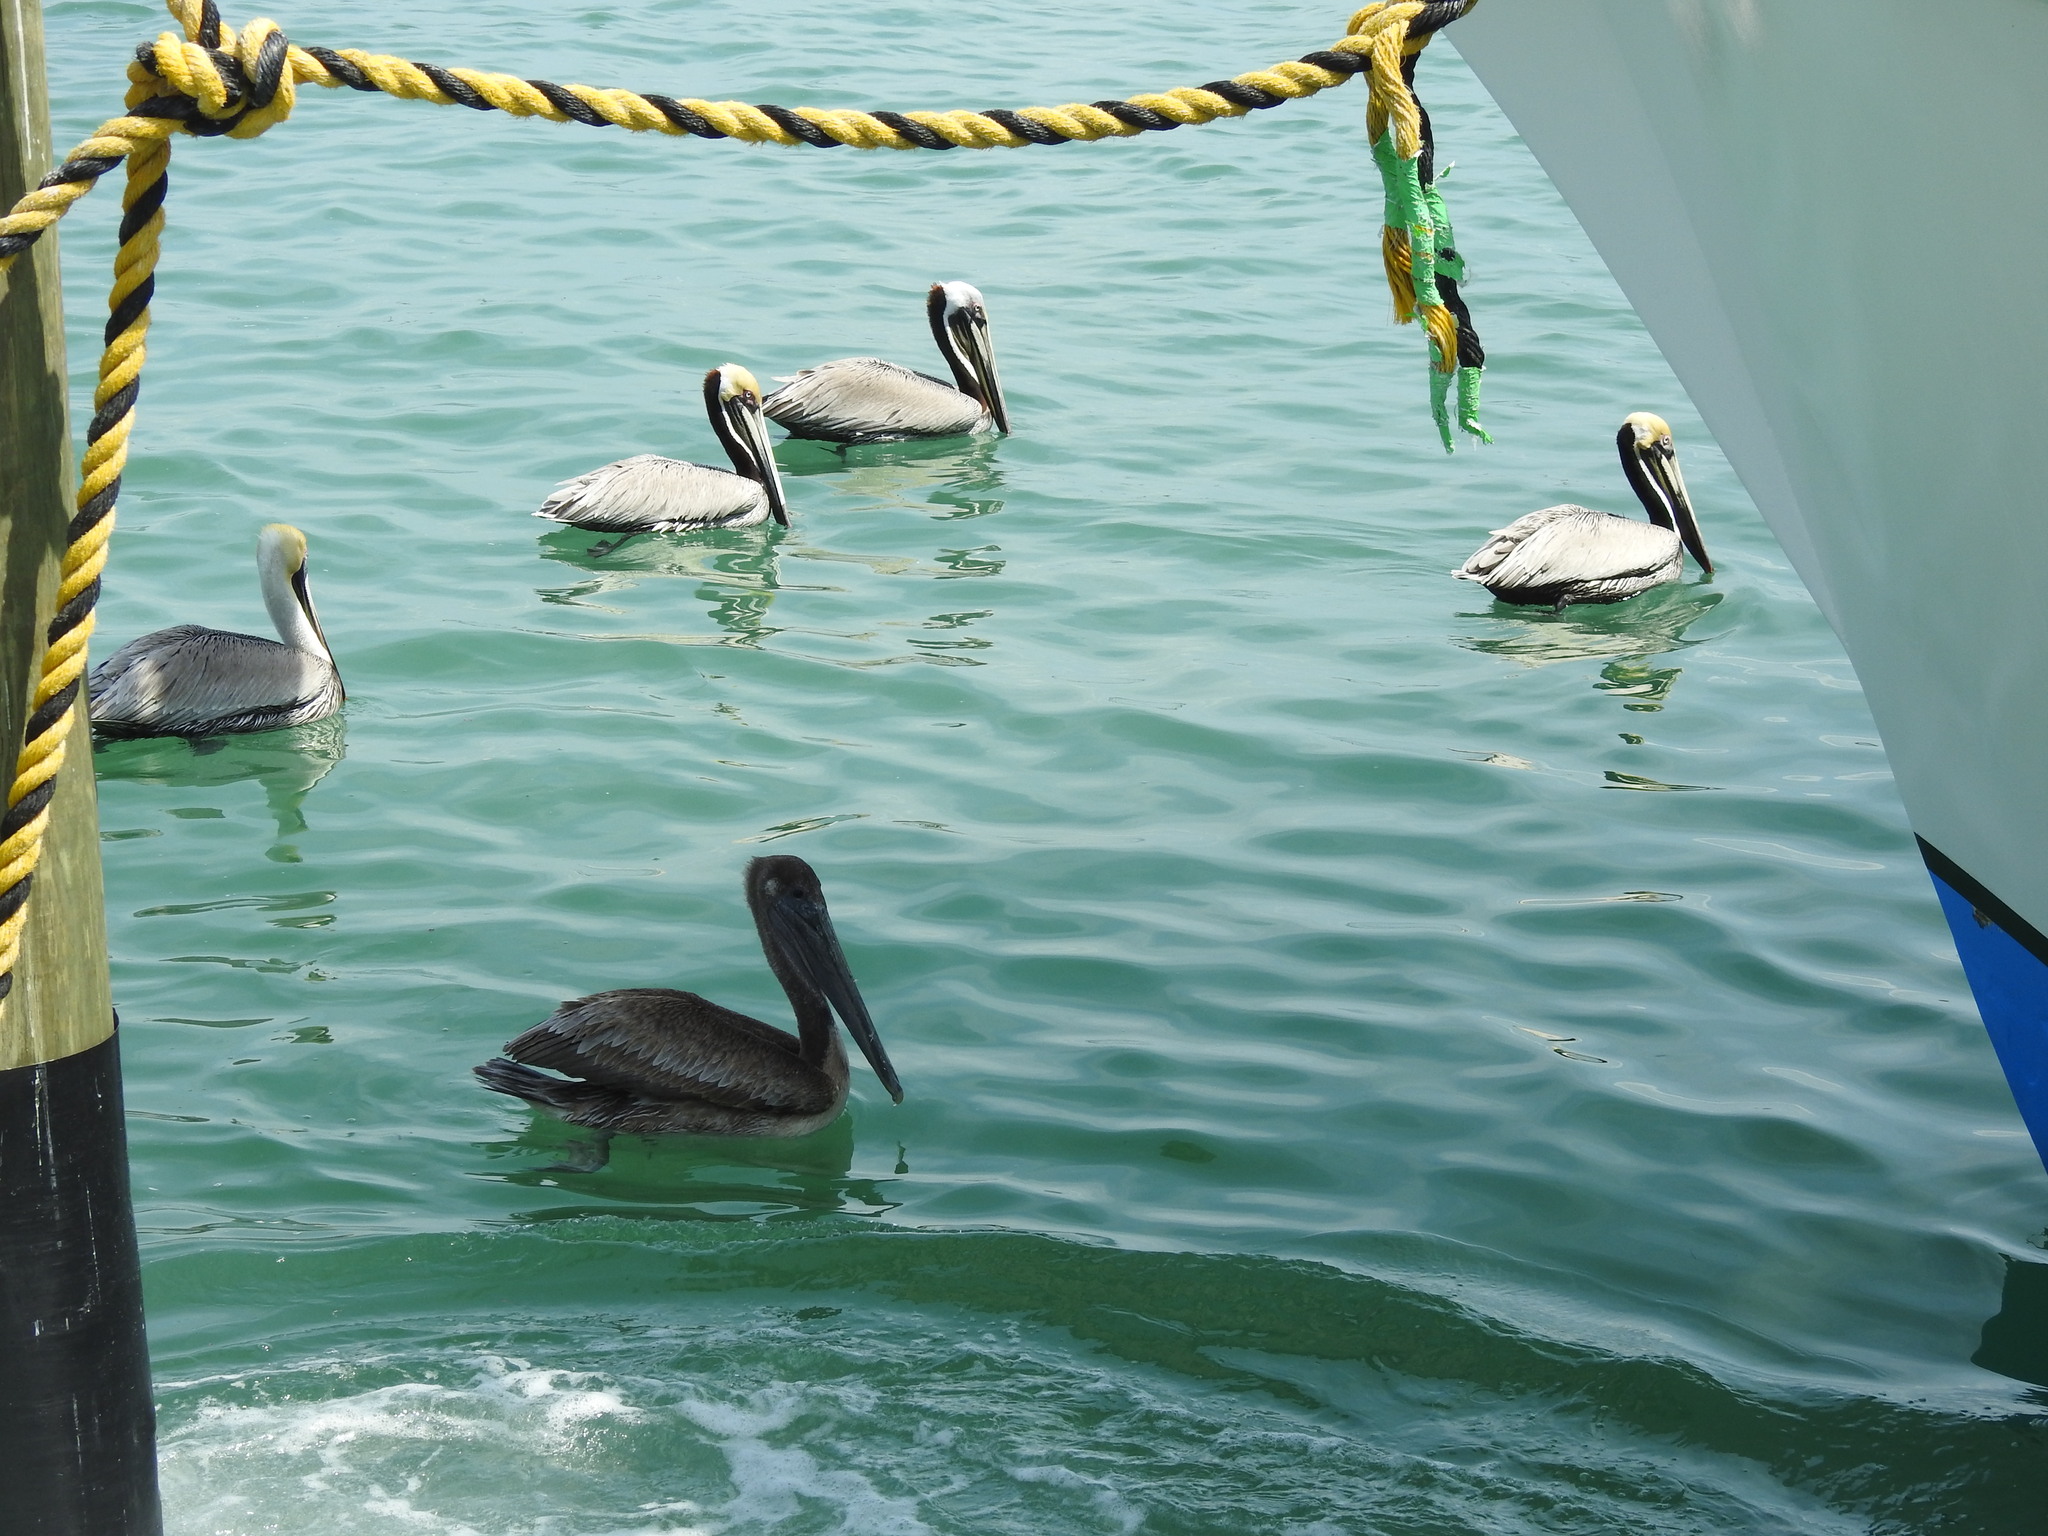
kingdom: Animalia
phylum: Chordata
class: Aves
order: Pelecaniformes
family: Pelecanidae
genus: Pelecanus
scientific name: Pelecanus occidentalis
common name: Brown pelican
